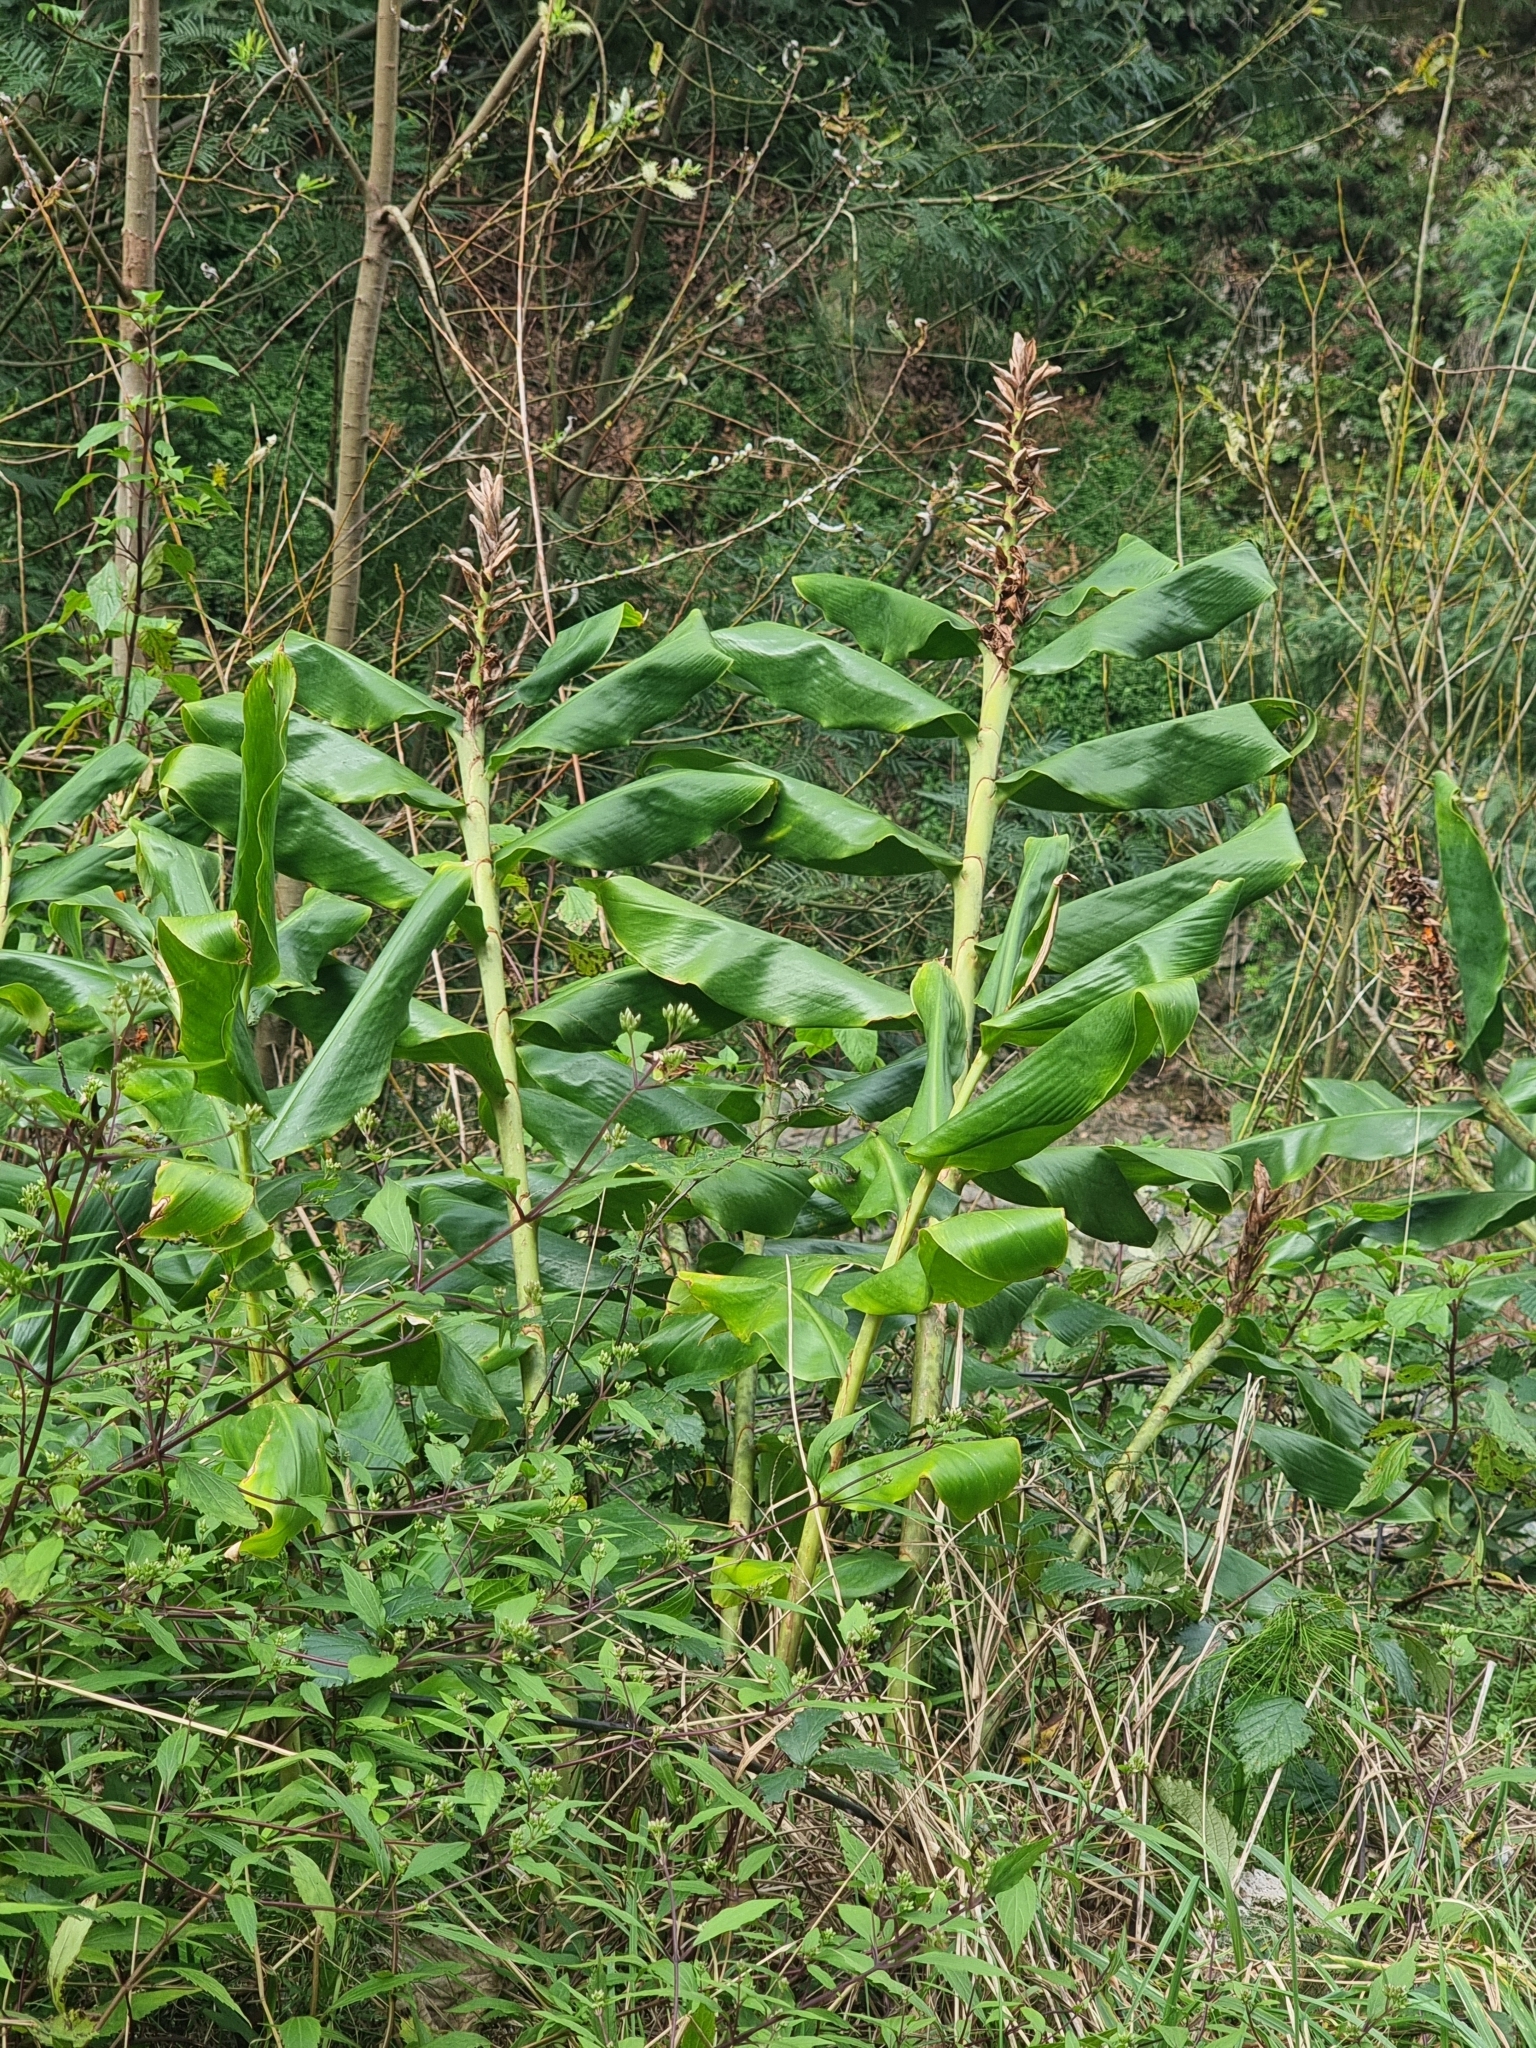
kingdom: Plantae
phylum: Tracheophyta
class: Liliopsida
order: Zingiberales
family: Zingiberaceae
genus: Hedychium
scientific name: Hedychium gardnerianum
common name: Himalayan ginger
